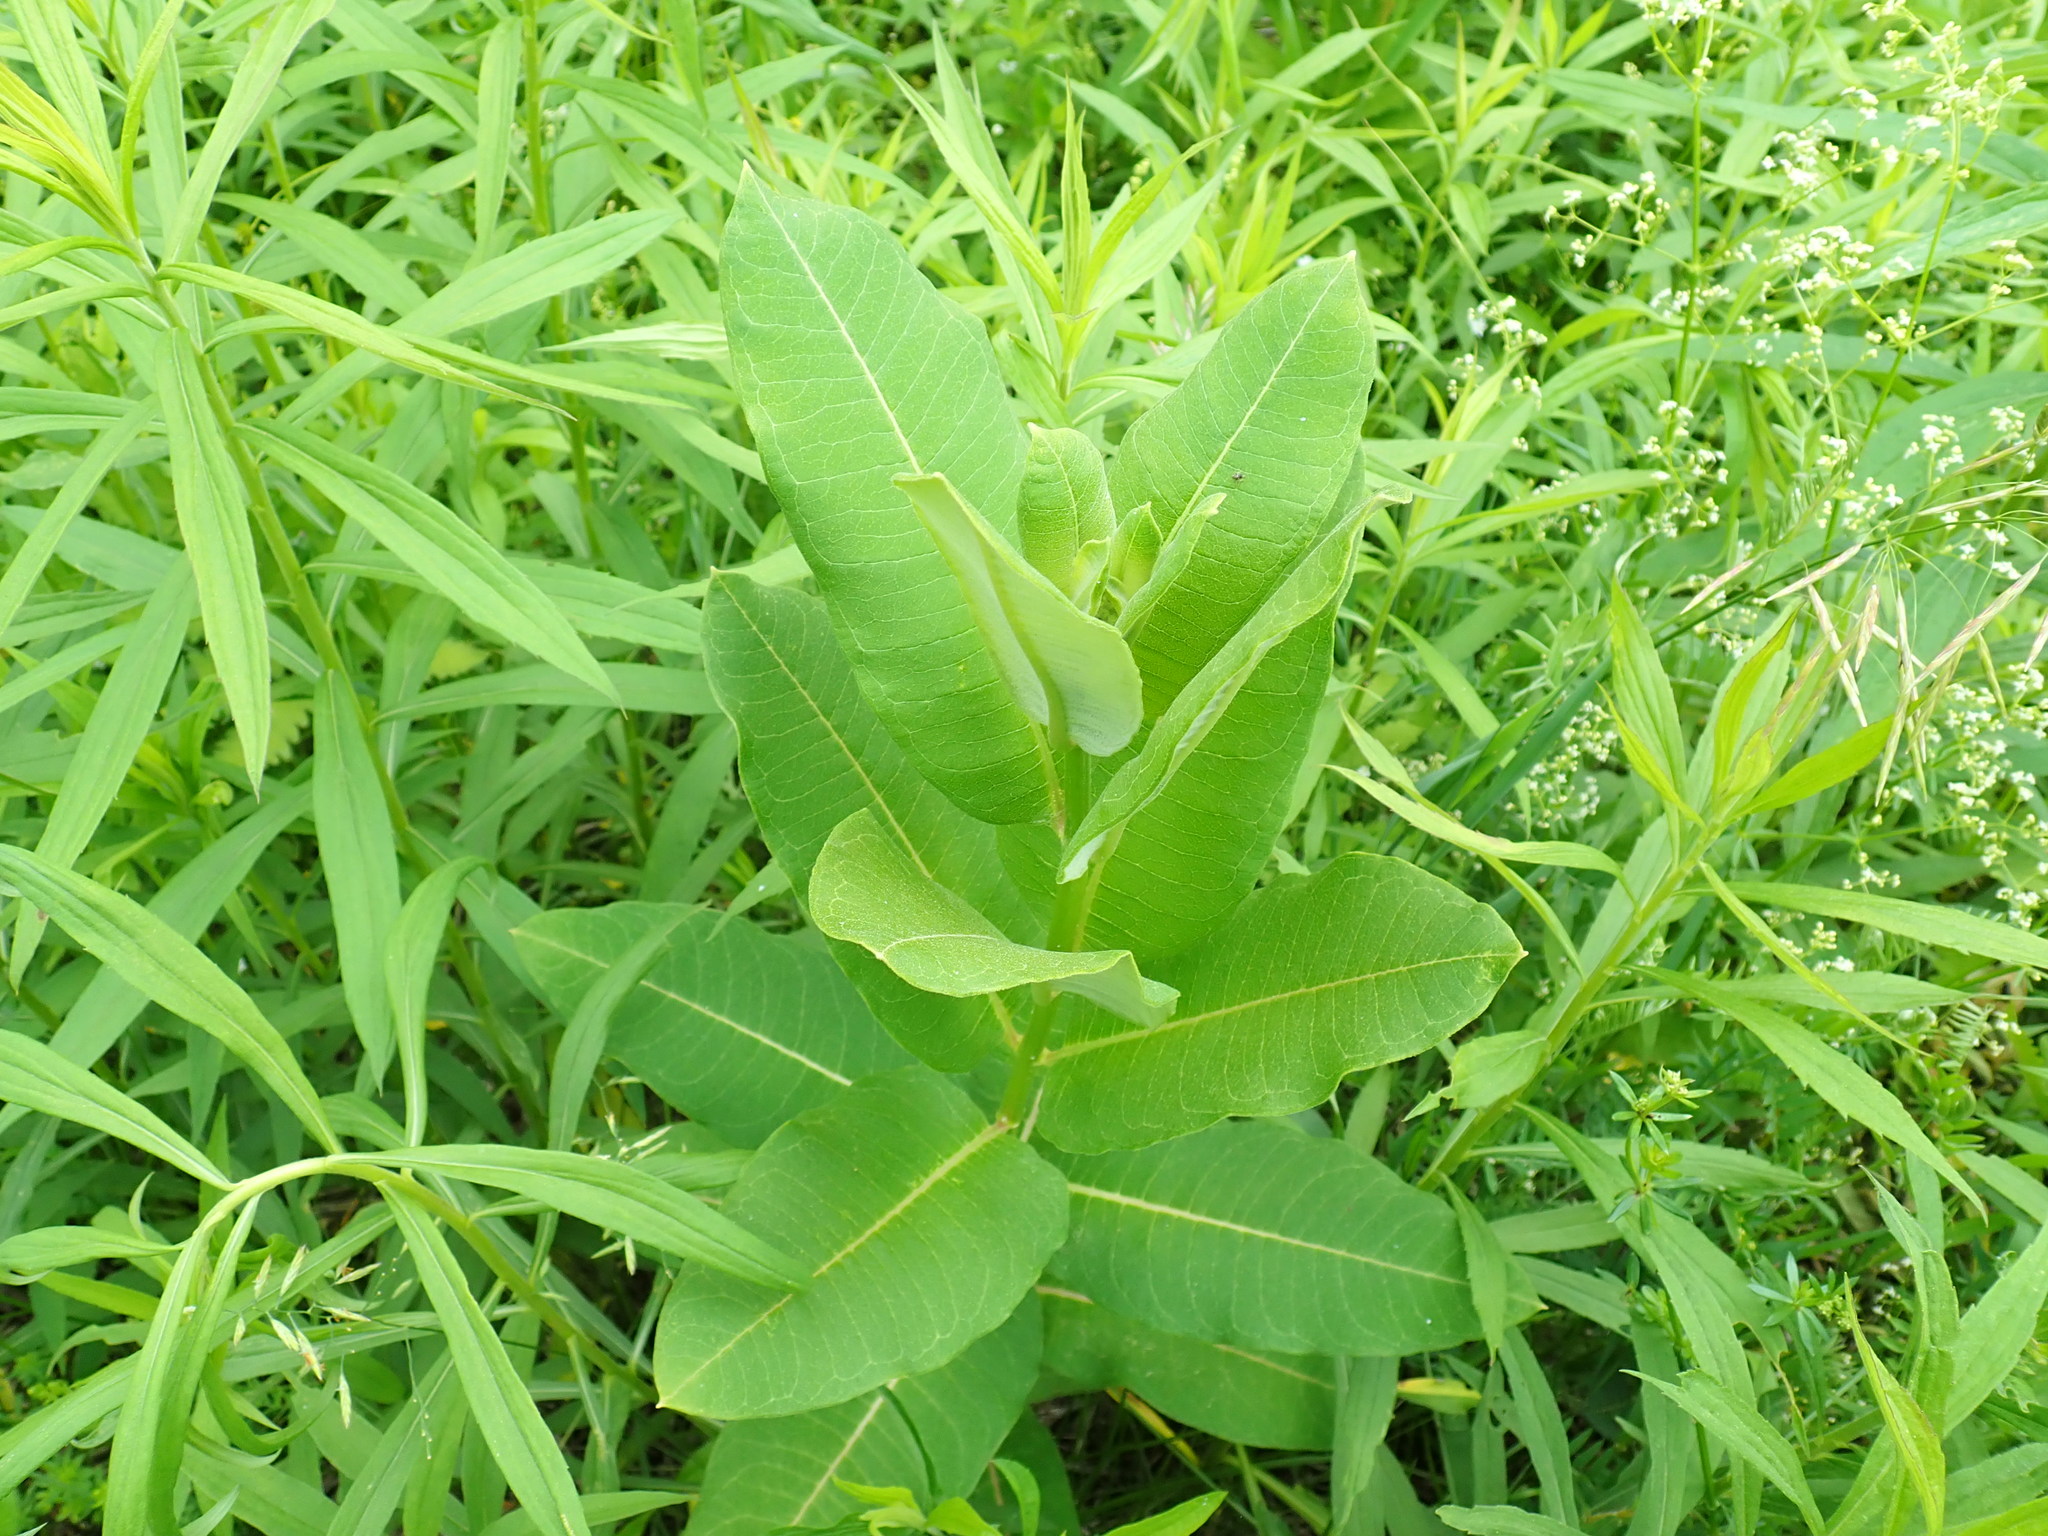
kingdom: Plantae
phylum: Tracheophyta
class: Magnoliopsida
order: Gentianales
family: Apocynaceae
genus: Asclepias
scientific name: Asclepias syriaca
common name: Common milkweed
